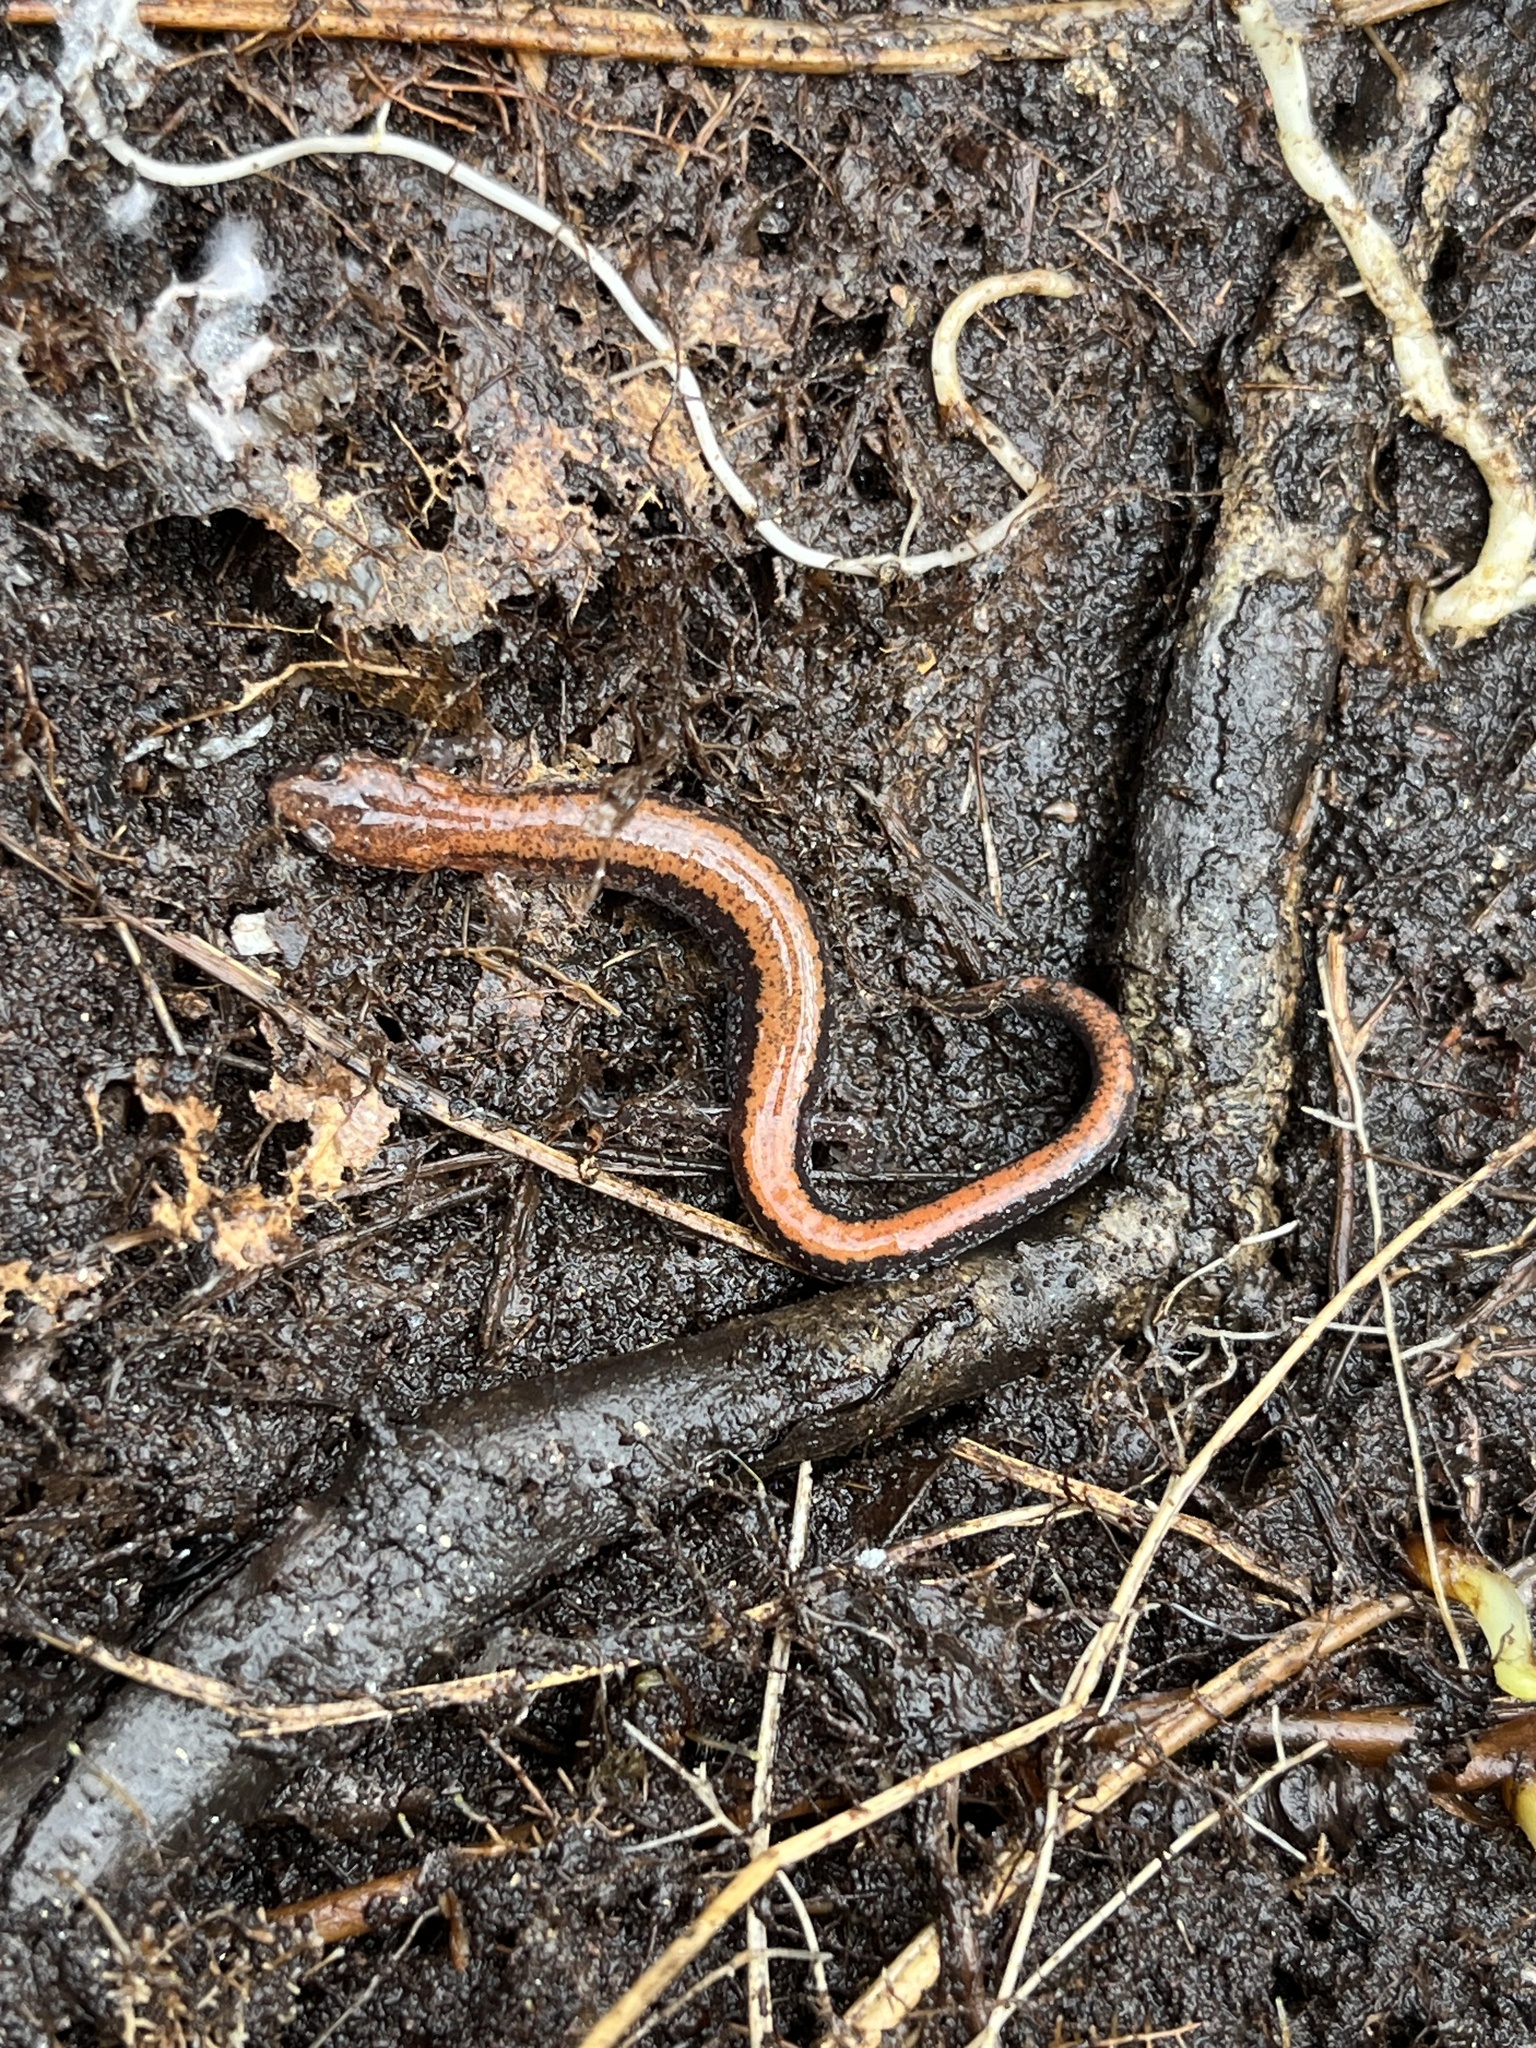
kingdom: Animalia
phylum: Chordata
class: Amphibia
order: Caudata
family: Plethodontidae
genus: Plethodon
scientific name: Plethodon cinereus
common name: Redback salamander
